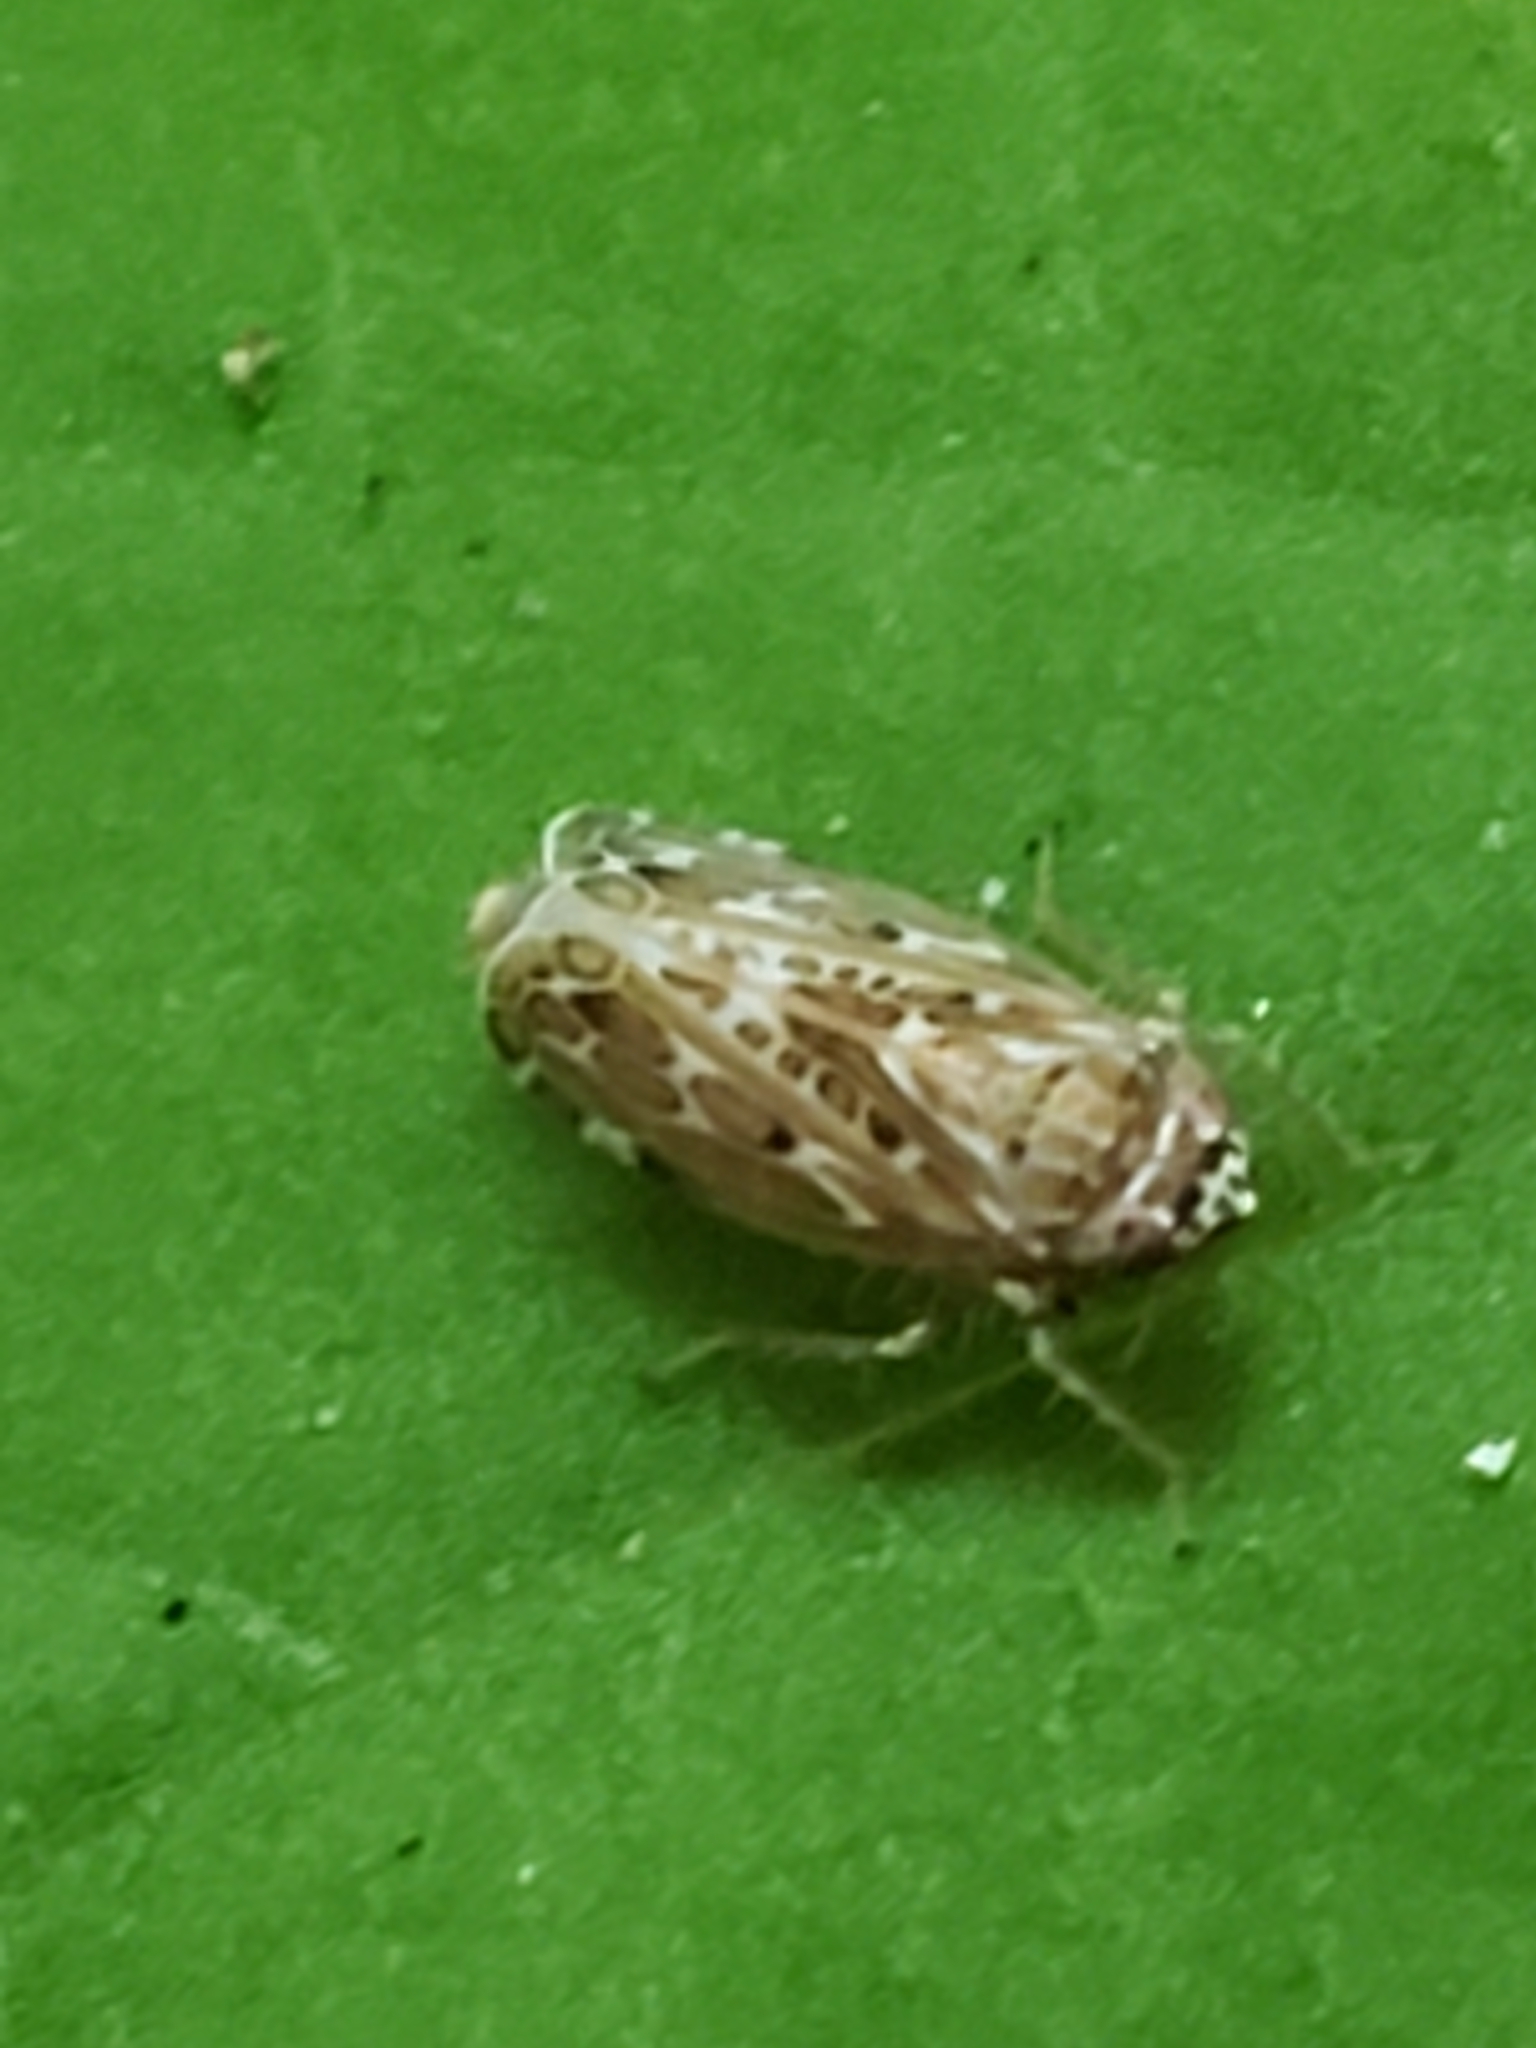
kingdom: Animalia
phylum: Arthropoda
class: Insecta
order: Hemiptera
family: Cicadellidae
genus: Polyamia
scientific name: Polyamia interrupta
